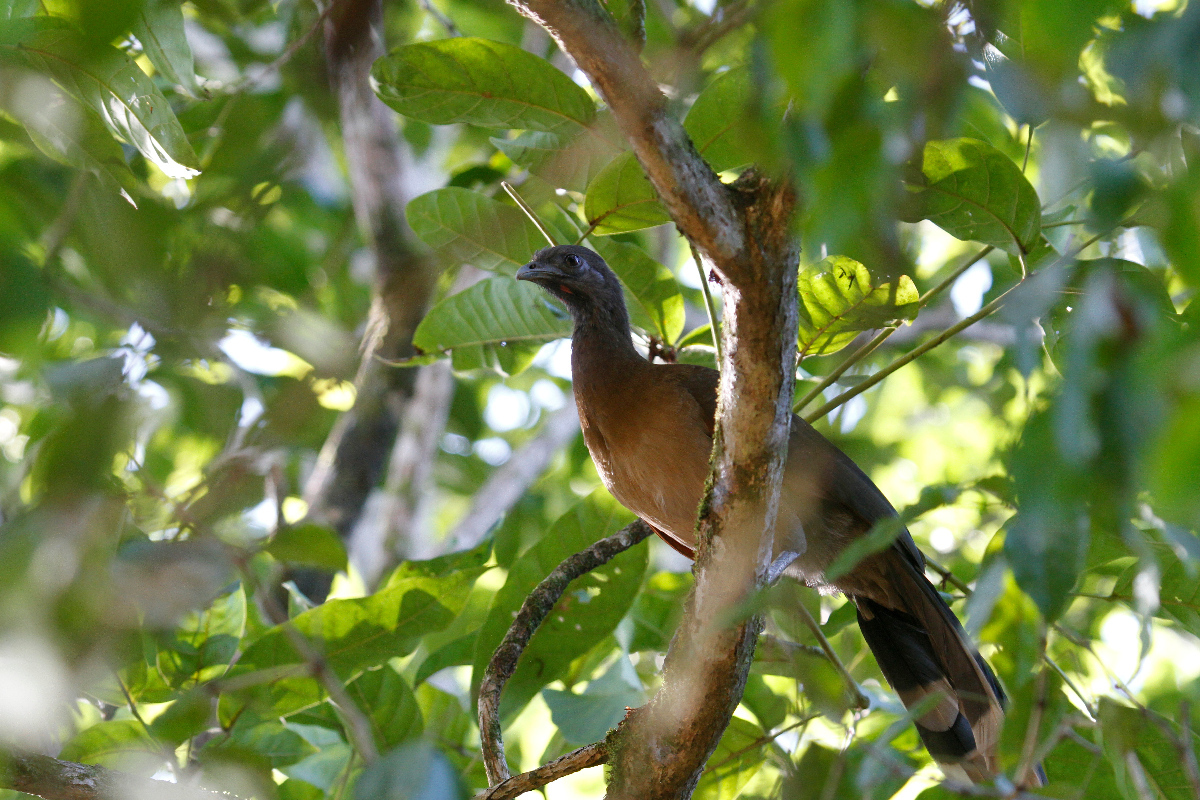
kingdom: Animalia
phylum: Chordata
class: Aves
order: Galliformes
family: Cracidae
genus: Ortalis
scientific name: Ortalis cinereiceps
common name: Grey-headed chachalaca
